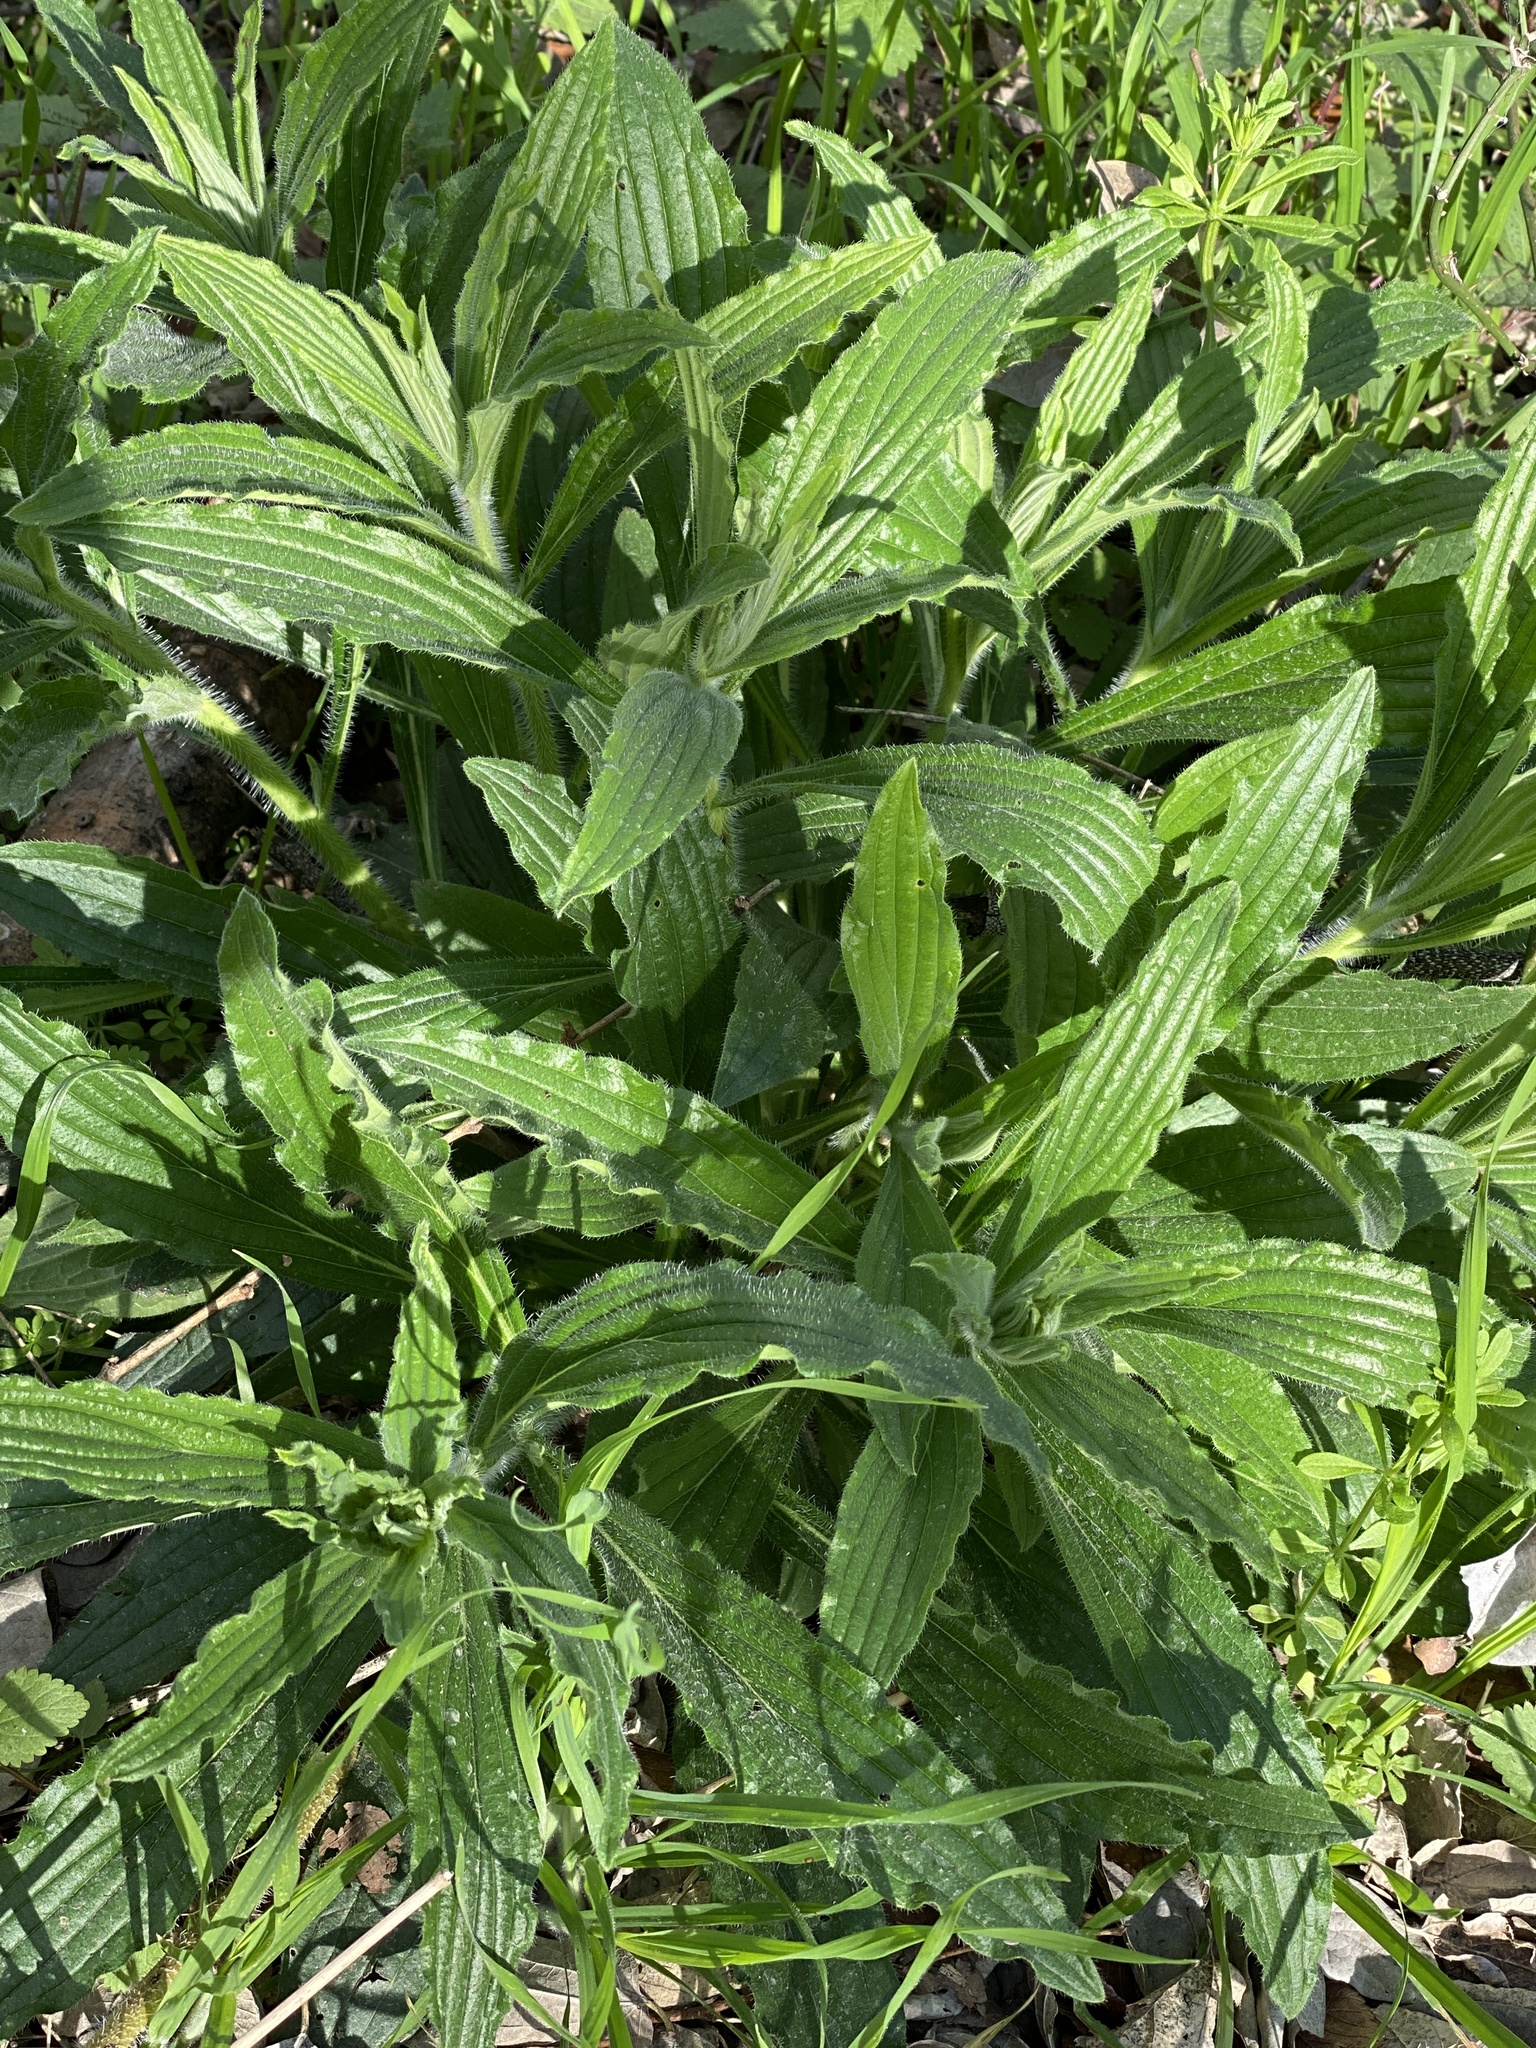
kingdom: Plantae
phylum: Tracheophyta
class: Magnoliopsida
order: Boraginales
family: Boraginaceae
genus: Lithospermum
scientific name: Lithospermum caroliniense
